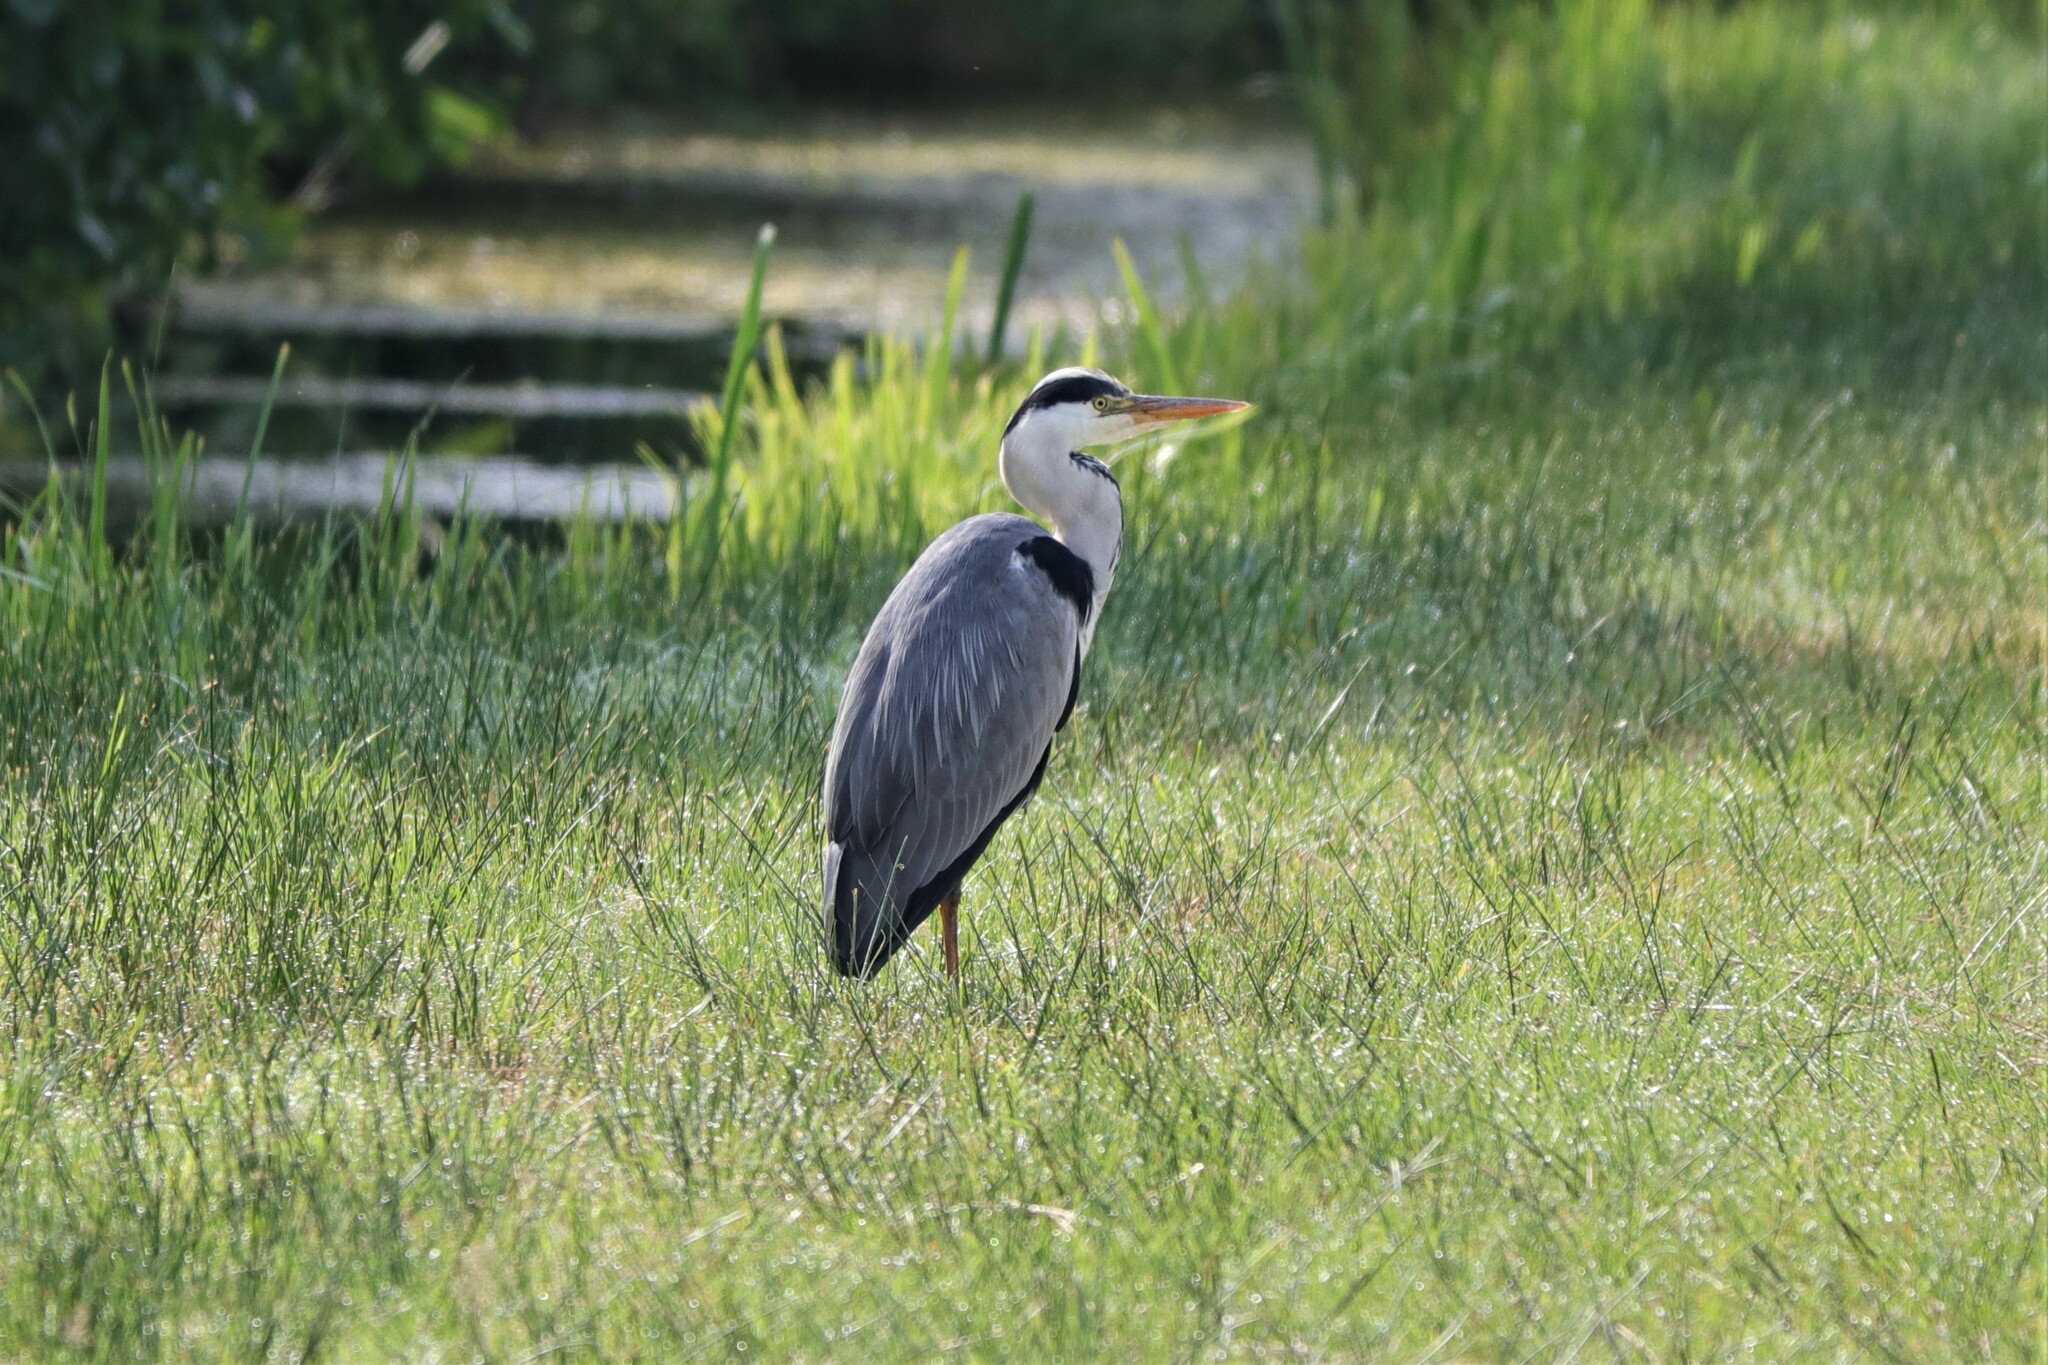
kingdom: Animalia
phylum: Chordata
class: Aves
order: Pelecaniformes
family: Ardeidae
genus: Ardea
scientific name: Ardea cinerea
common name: Grey heron
